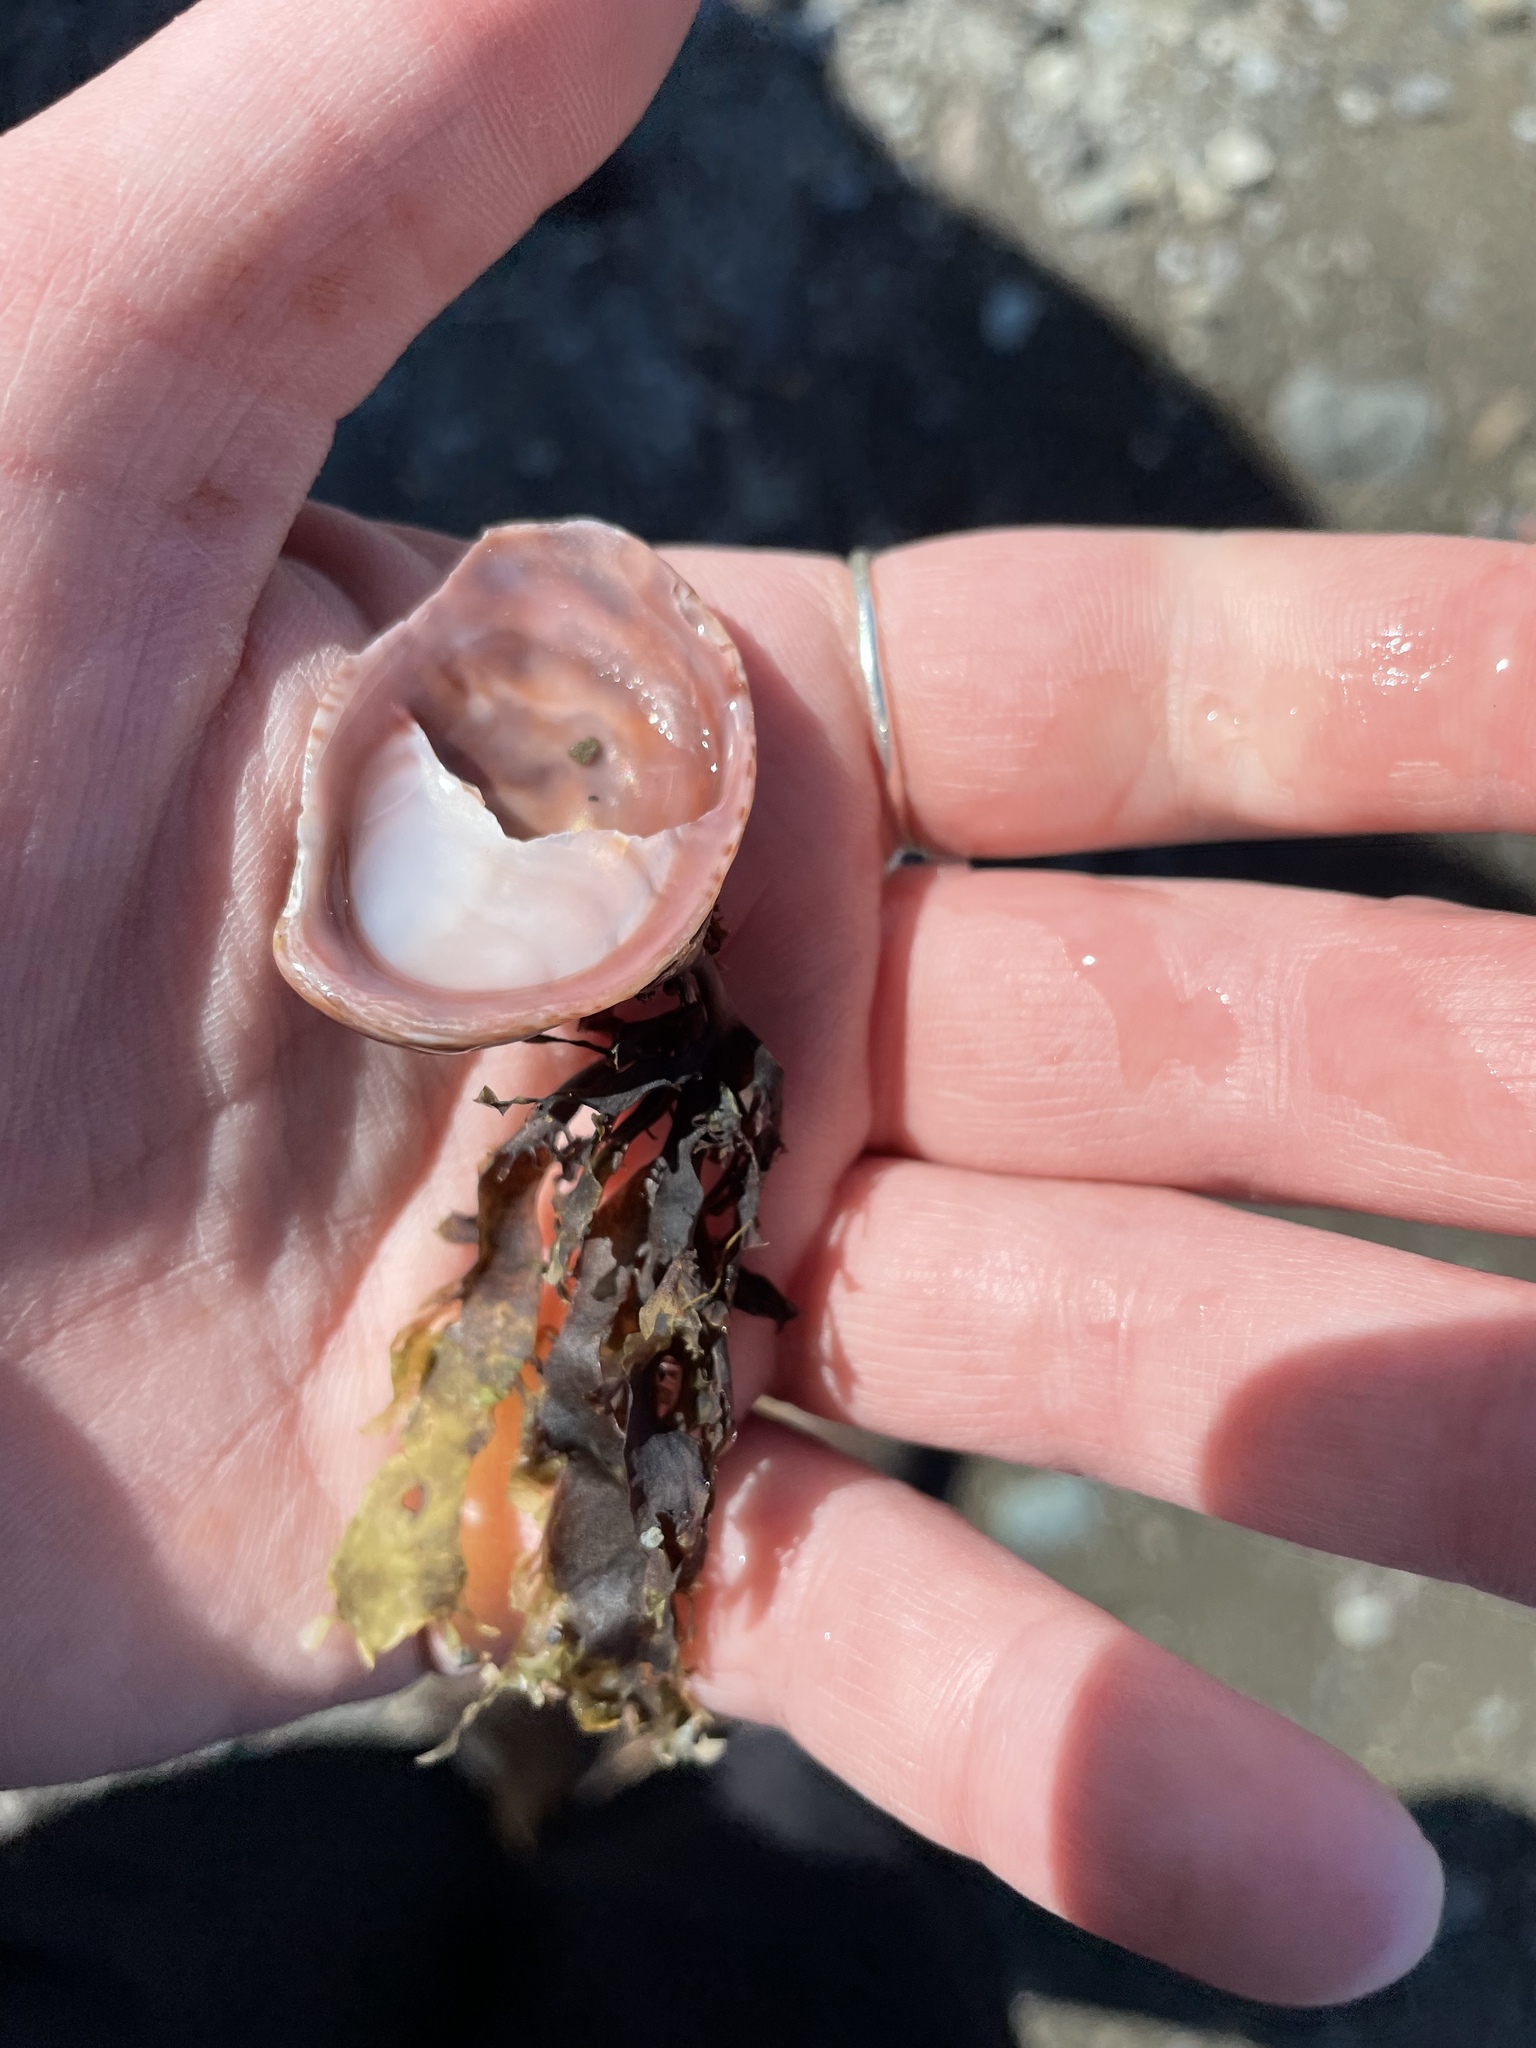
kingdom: Animalia
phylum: Mollusca
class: Gastropoda
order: Littorinimorpha
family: Calyptraeidae
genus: Crepidula
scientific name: Crepidula fornicata
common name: Slipper limpet
